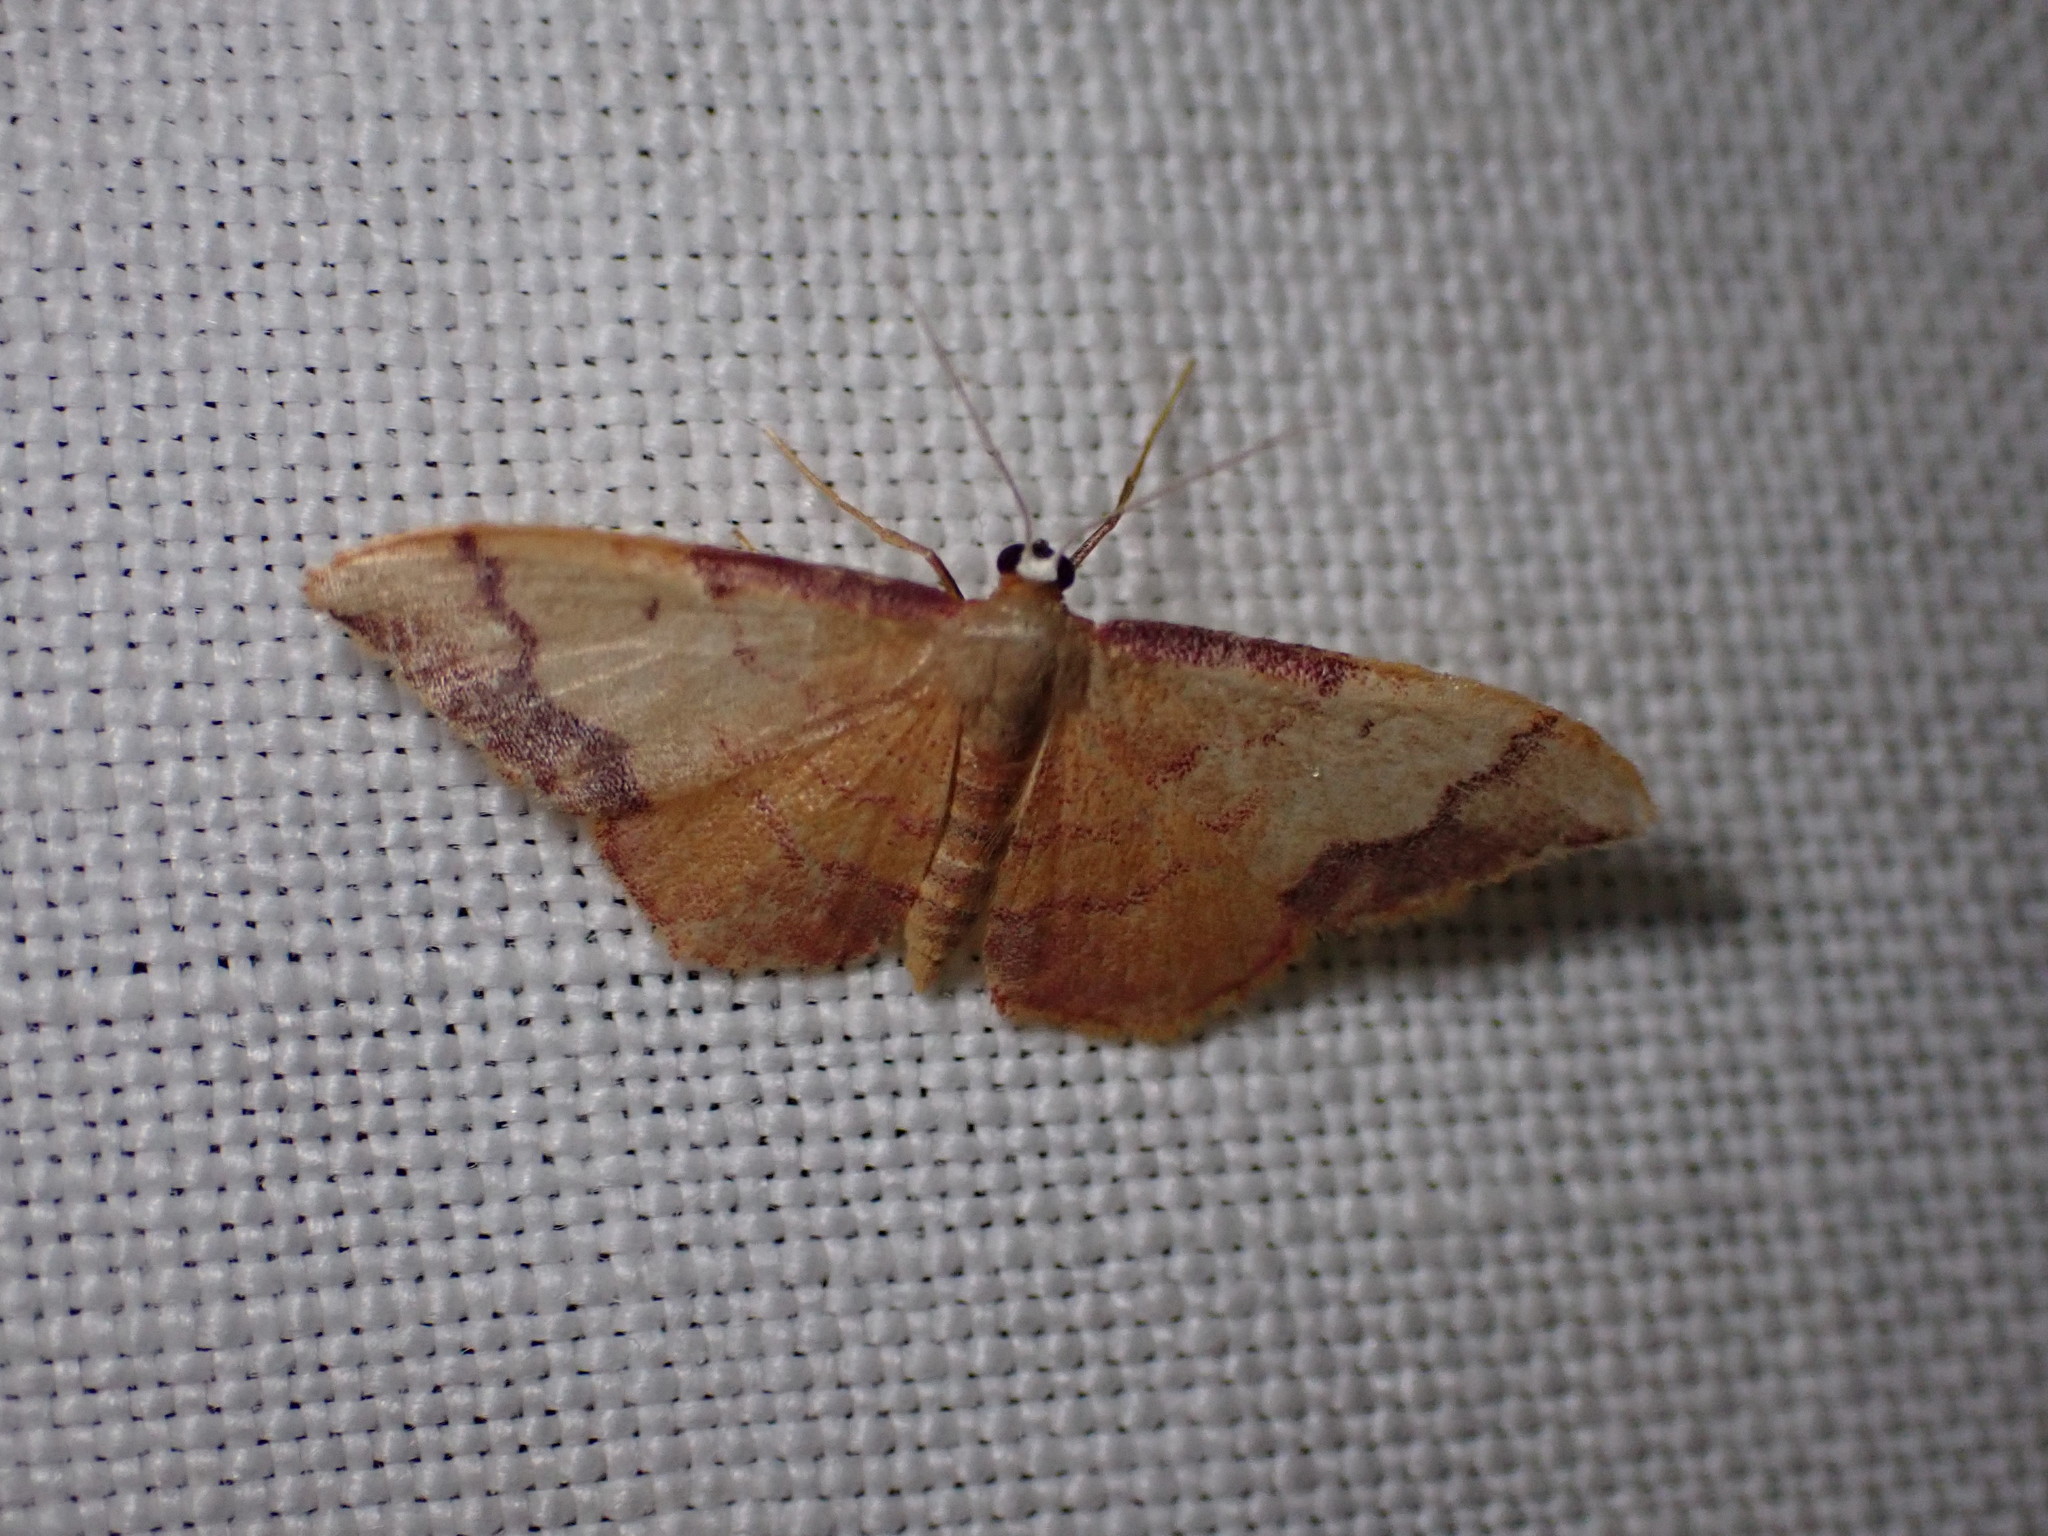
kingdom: Animalia
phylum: Arthropoda
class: Insecta
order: Lepidoptera
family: Geometridae
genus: Idaea
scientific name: Idaea ostrinaria
